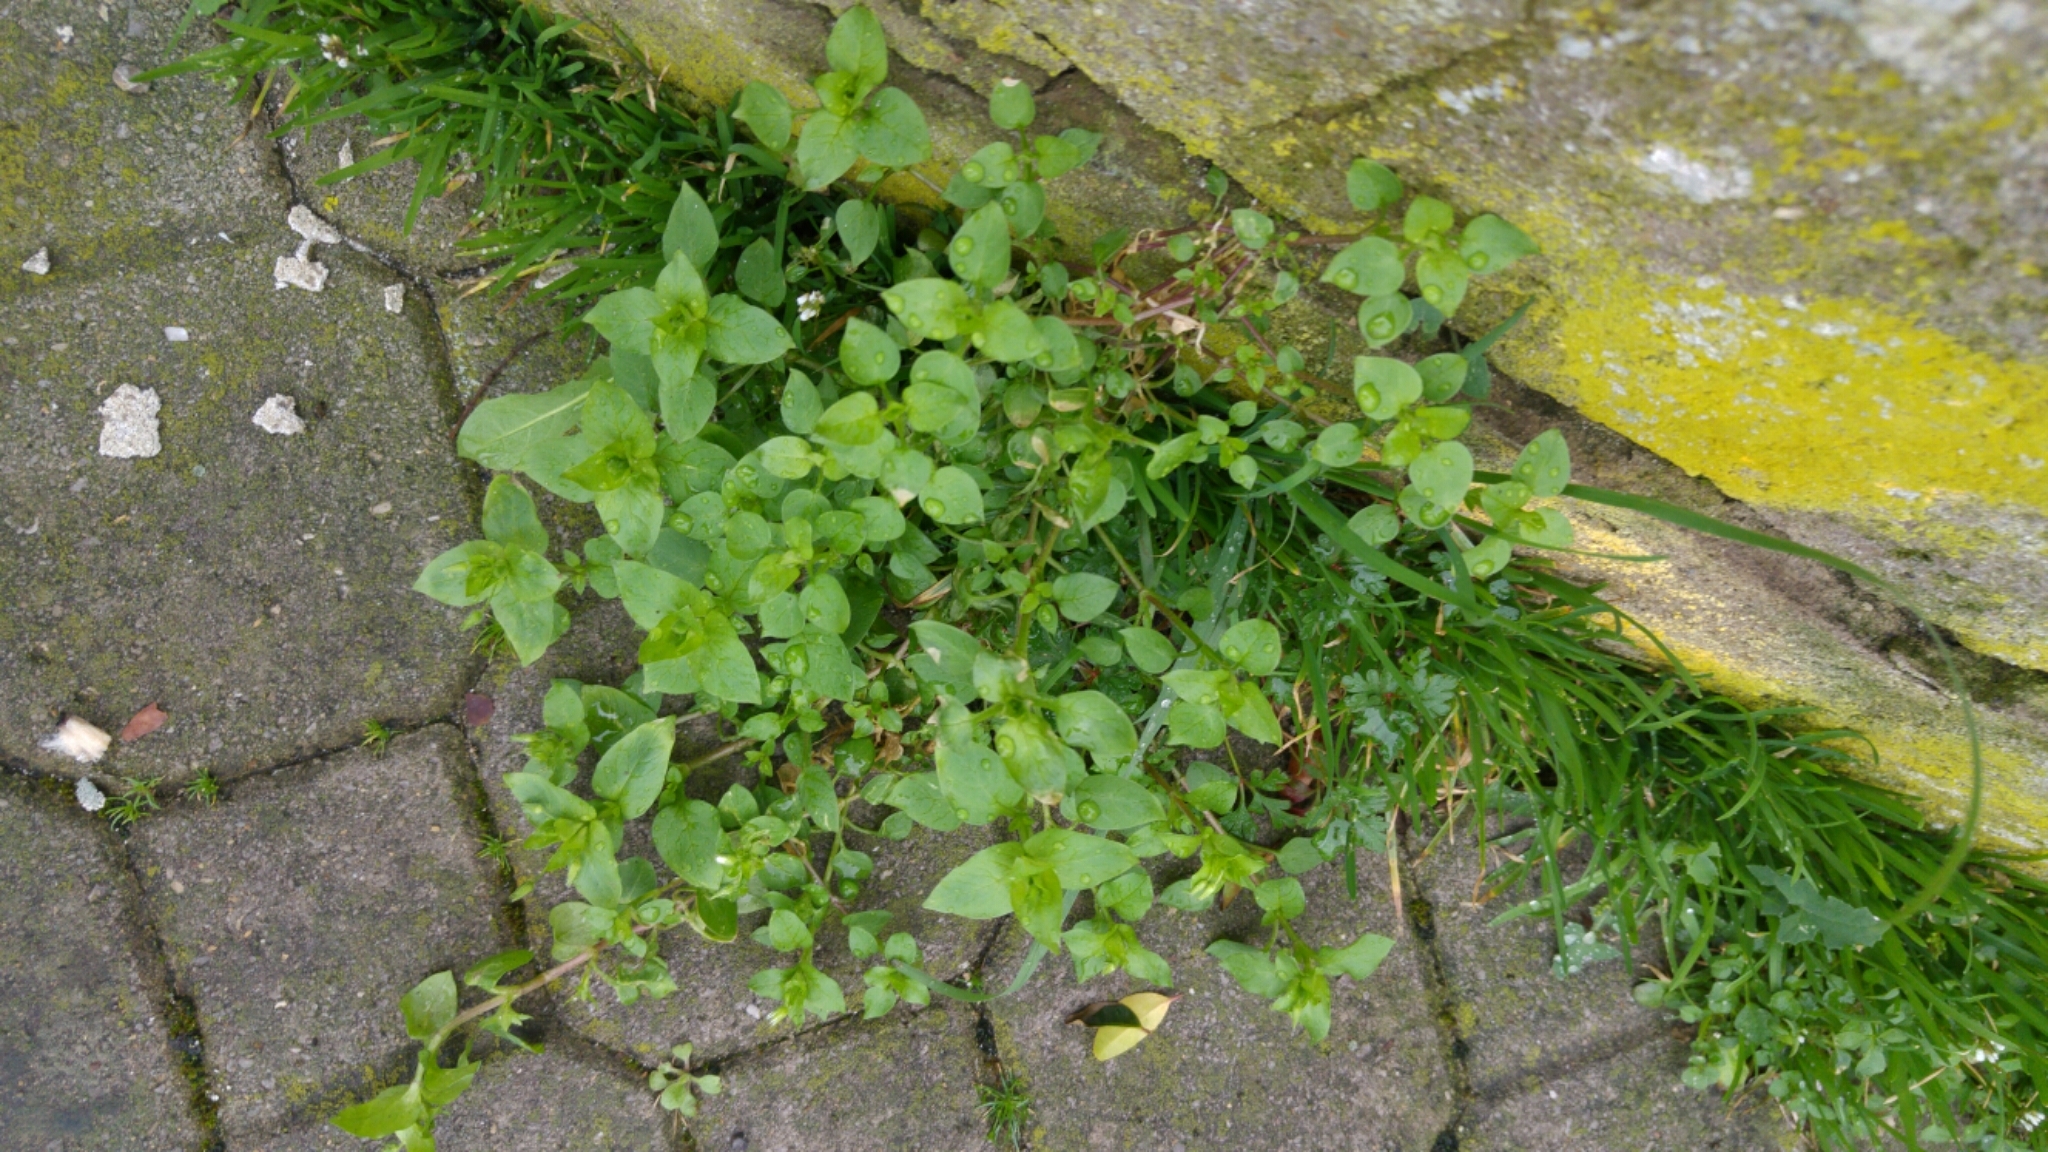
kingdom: Plantae
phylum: Tracheophyta
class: Magnoliopsida
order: Caryophyllales
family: Caryophyllaceae
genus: Stellaria
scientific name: Stellaria media
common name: Common chickweed
